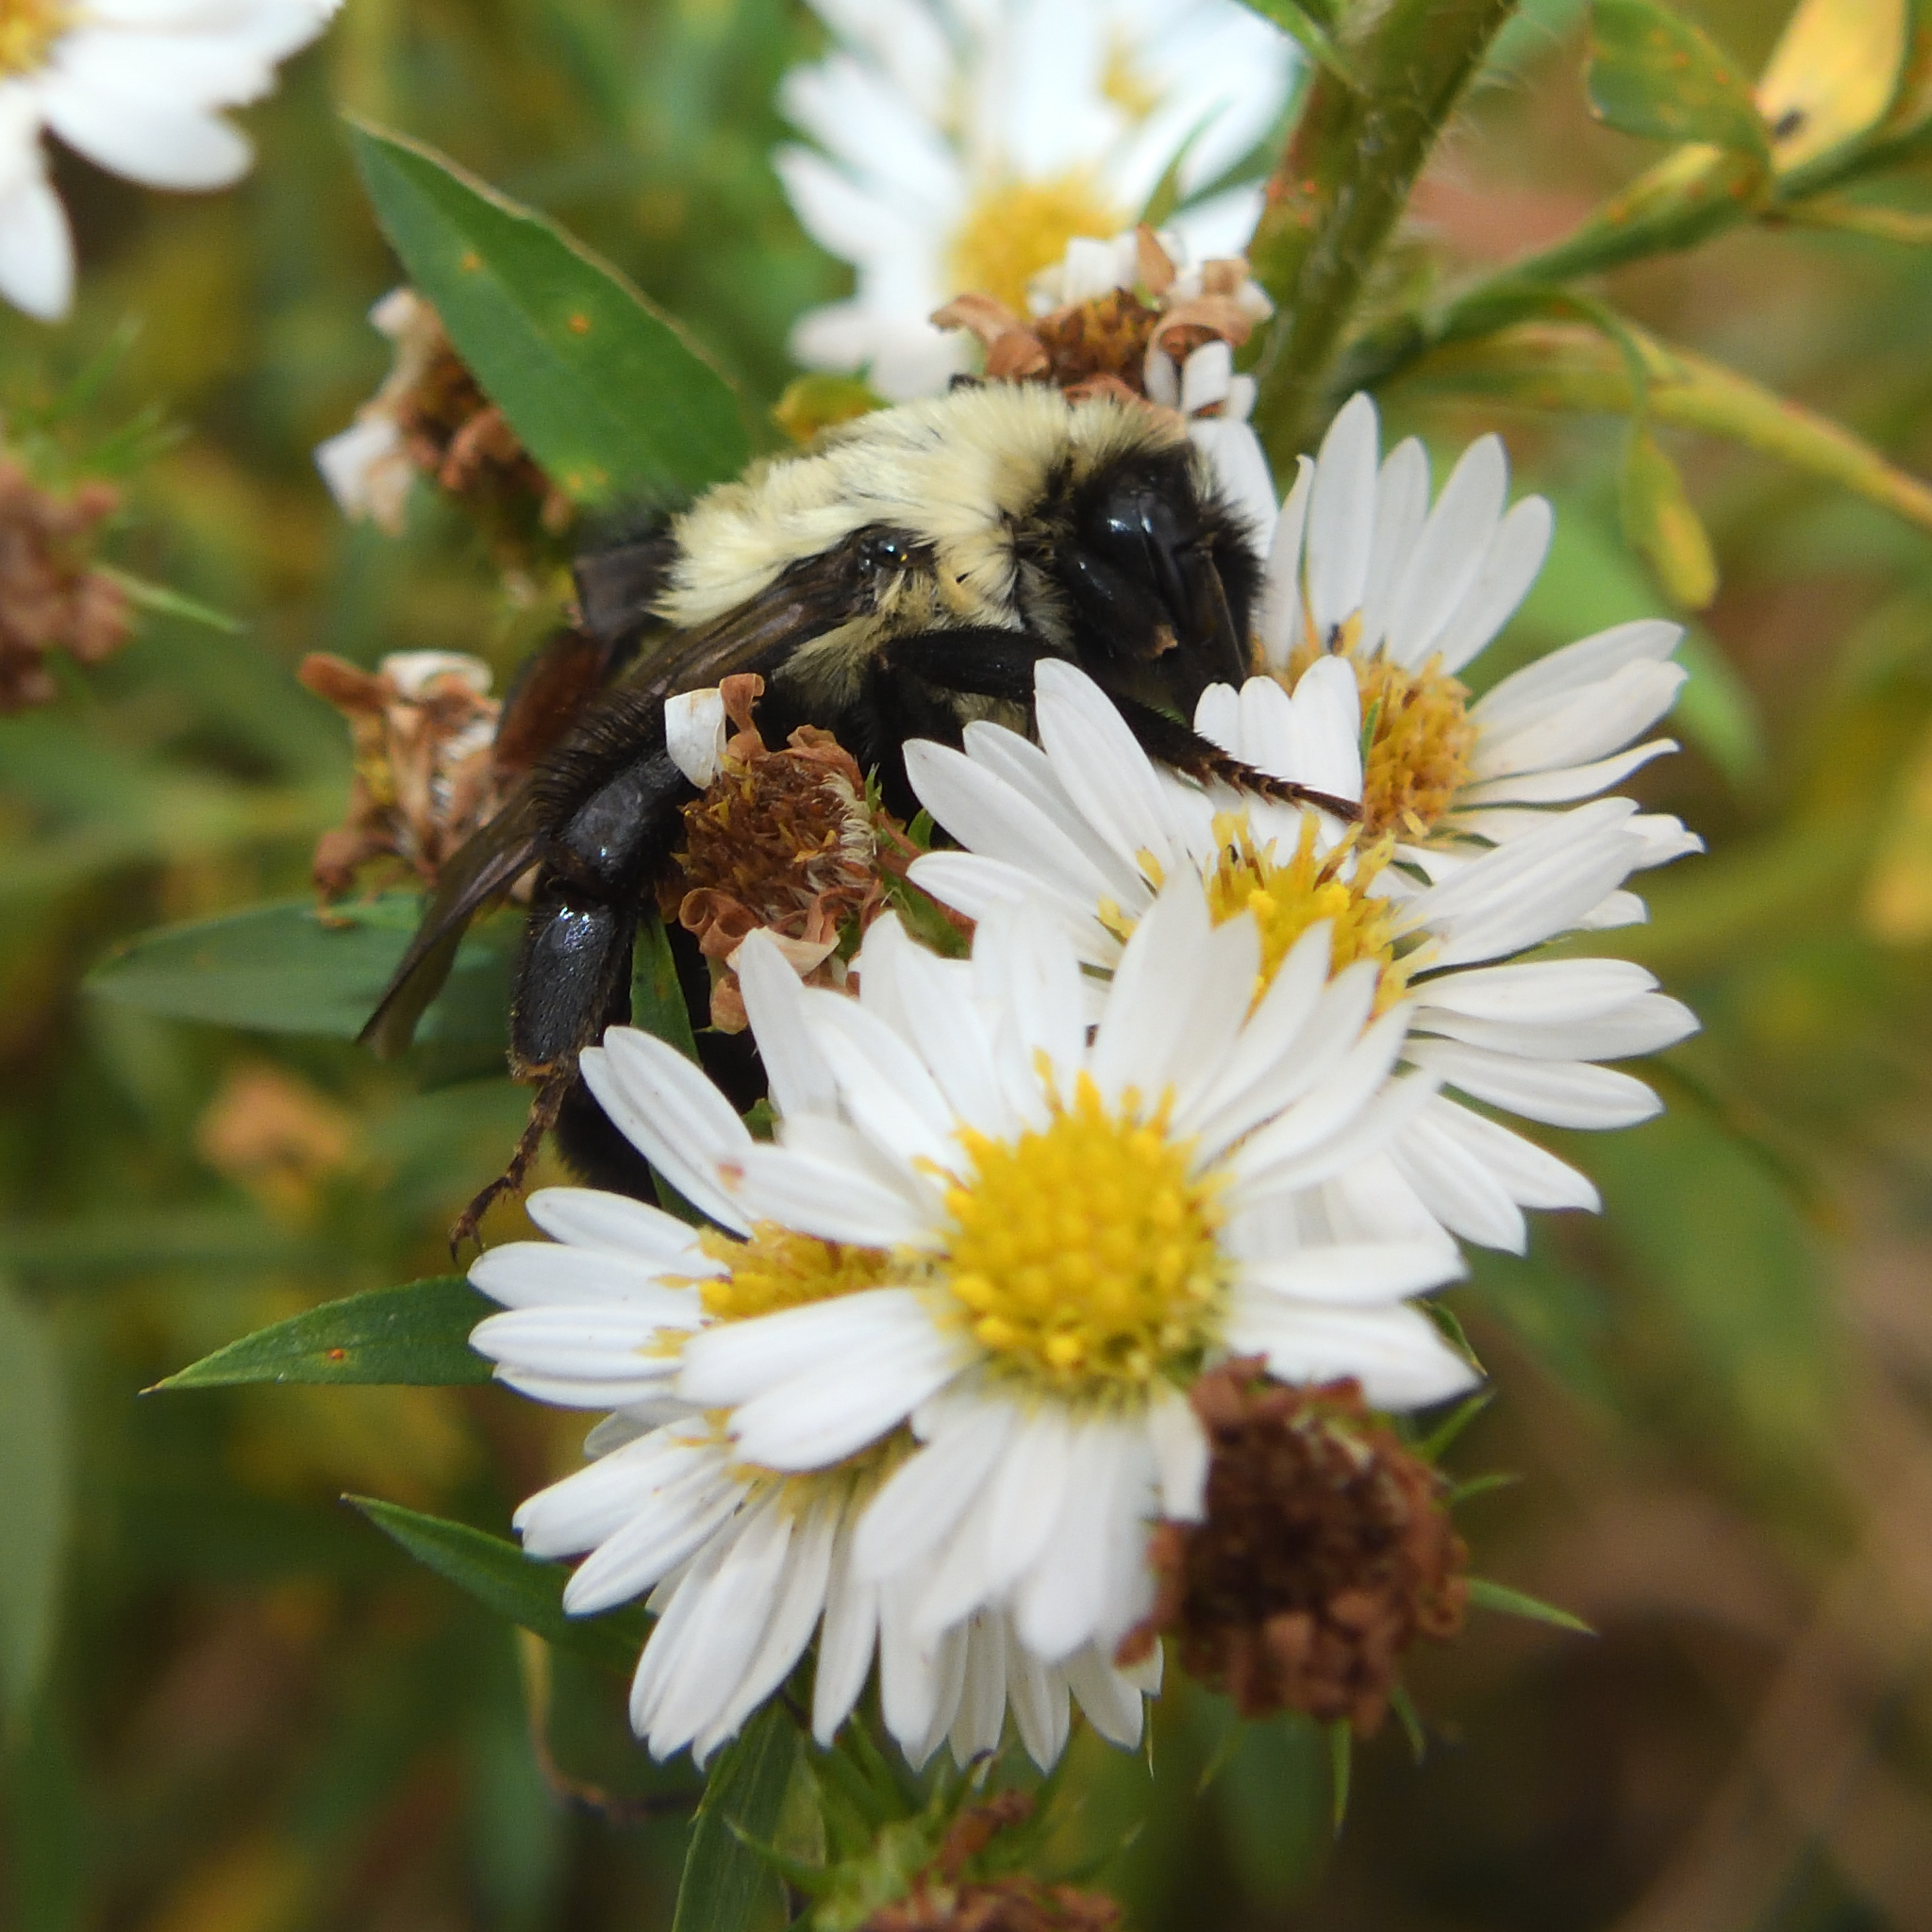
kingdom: Animalia
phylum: Arthropoda
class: Insecta
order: Hymenoptera
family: Apidae
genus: Bombus
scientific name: Bombus impatiens
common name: Common eastern bumble bee
